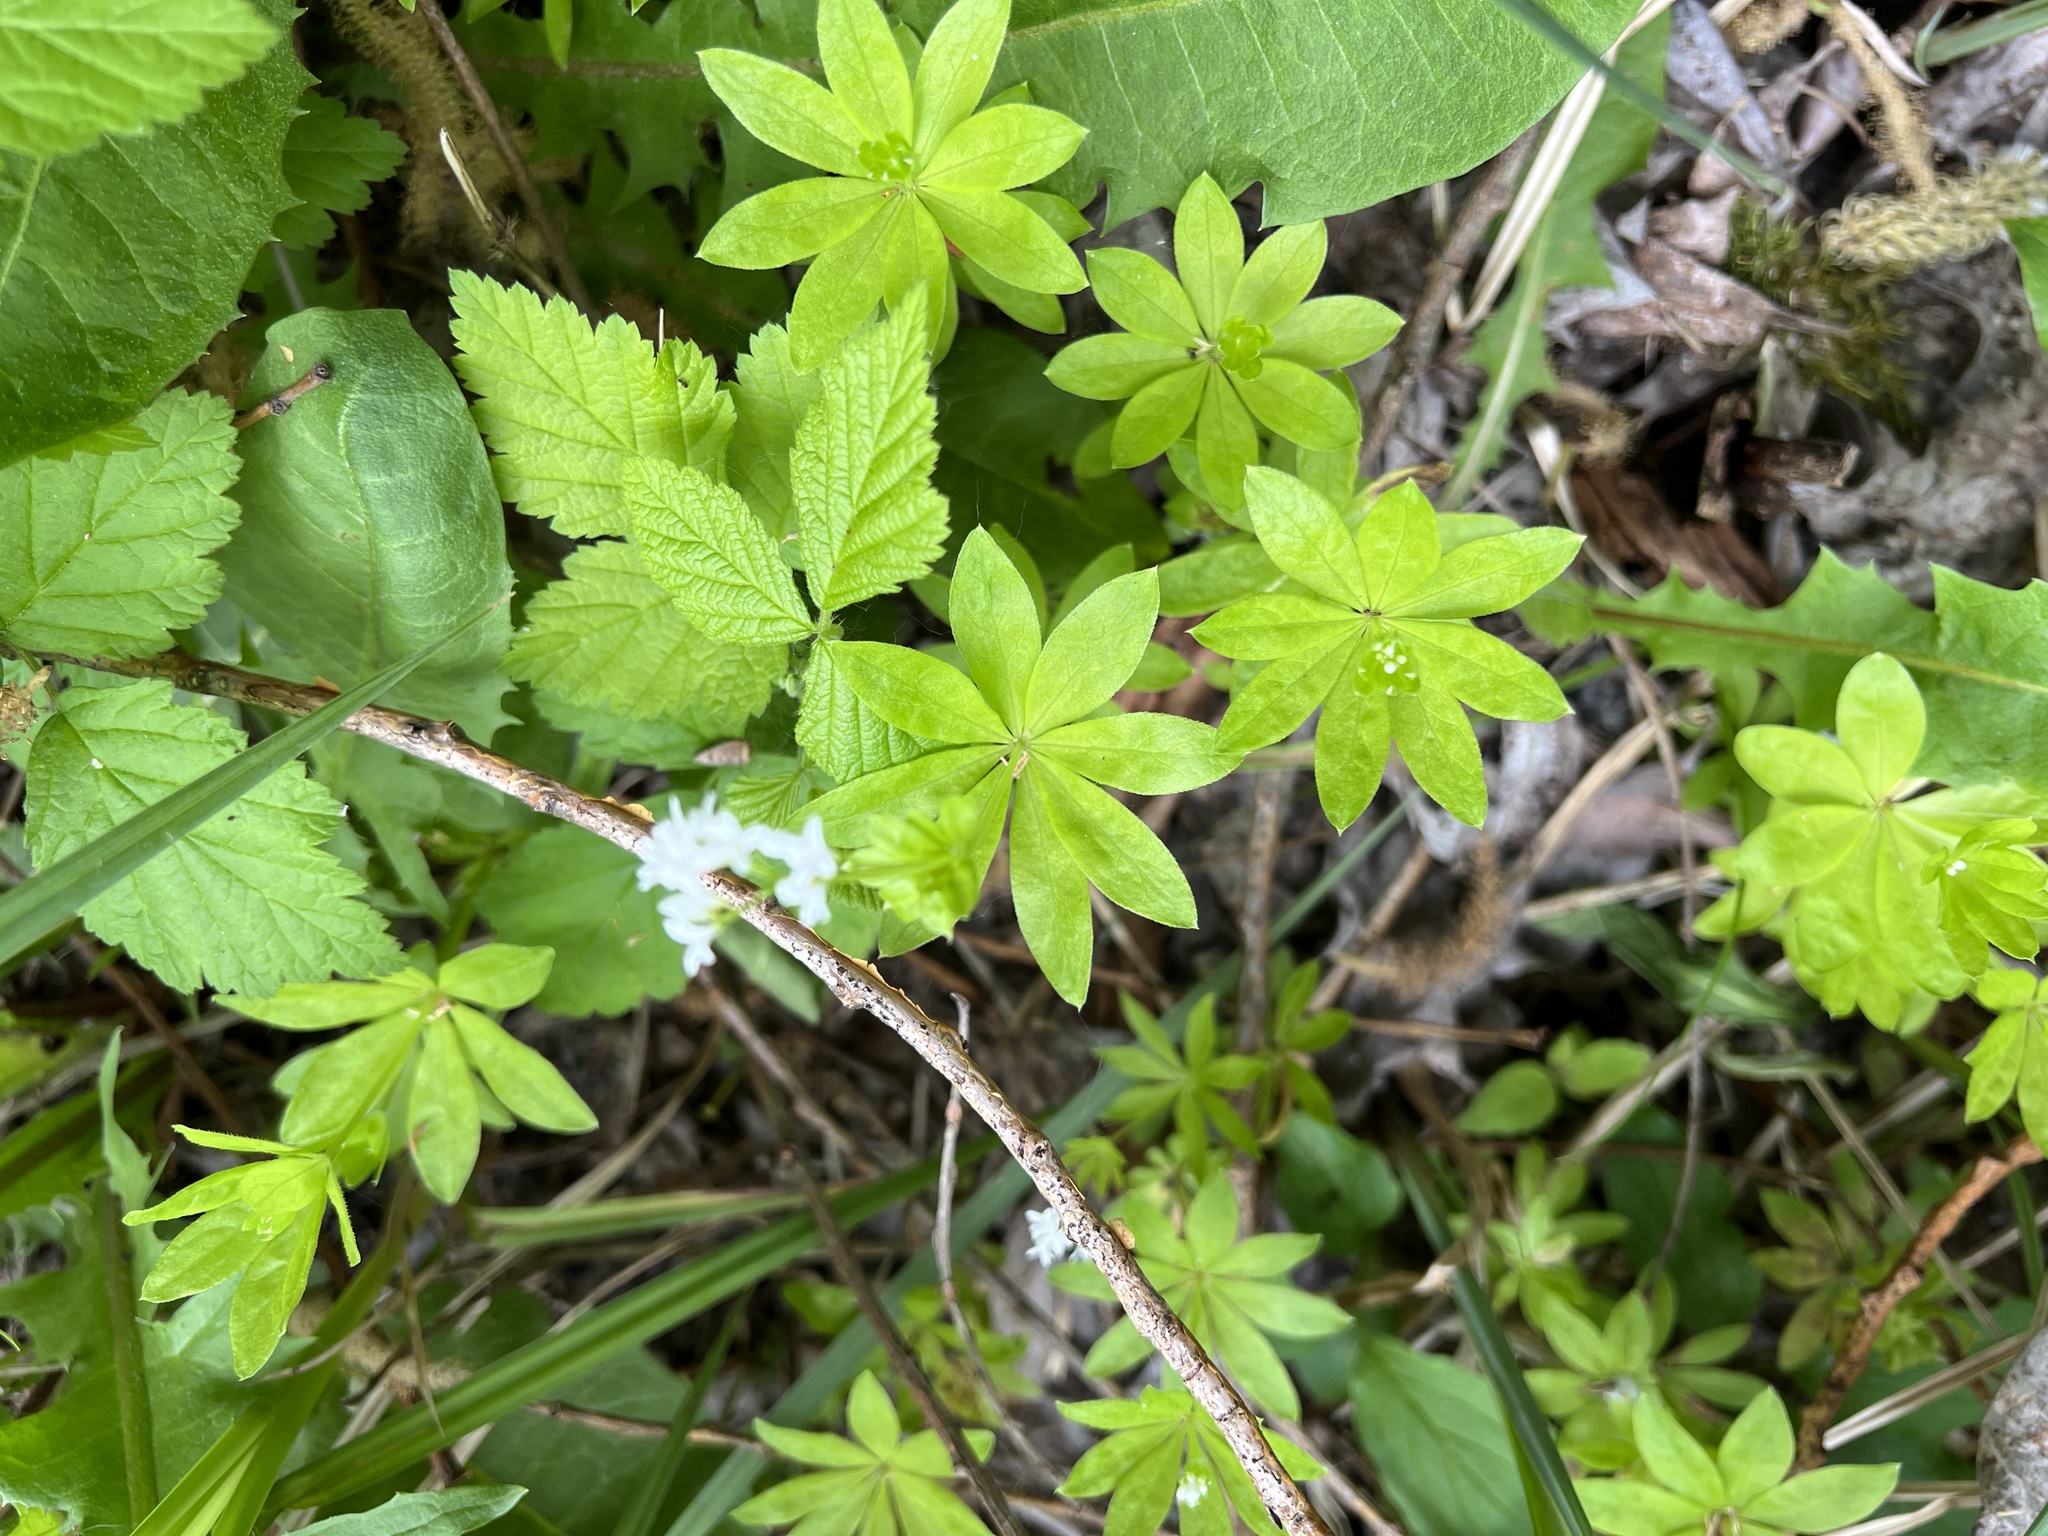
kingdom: Plantae
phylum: Tracheophyta
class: Magnoliopsida
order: Gentianales
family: Rubiaceae
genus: Galium
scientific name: Galium odoratum
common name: Sweet woodruff
